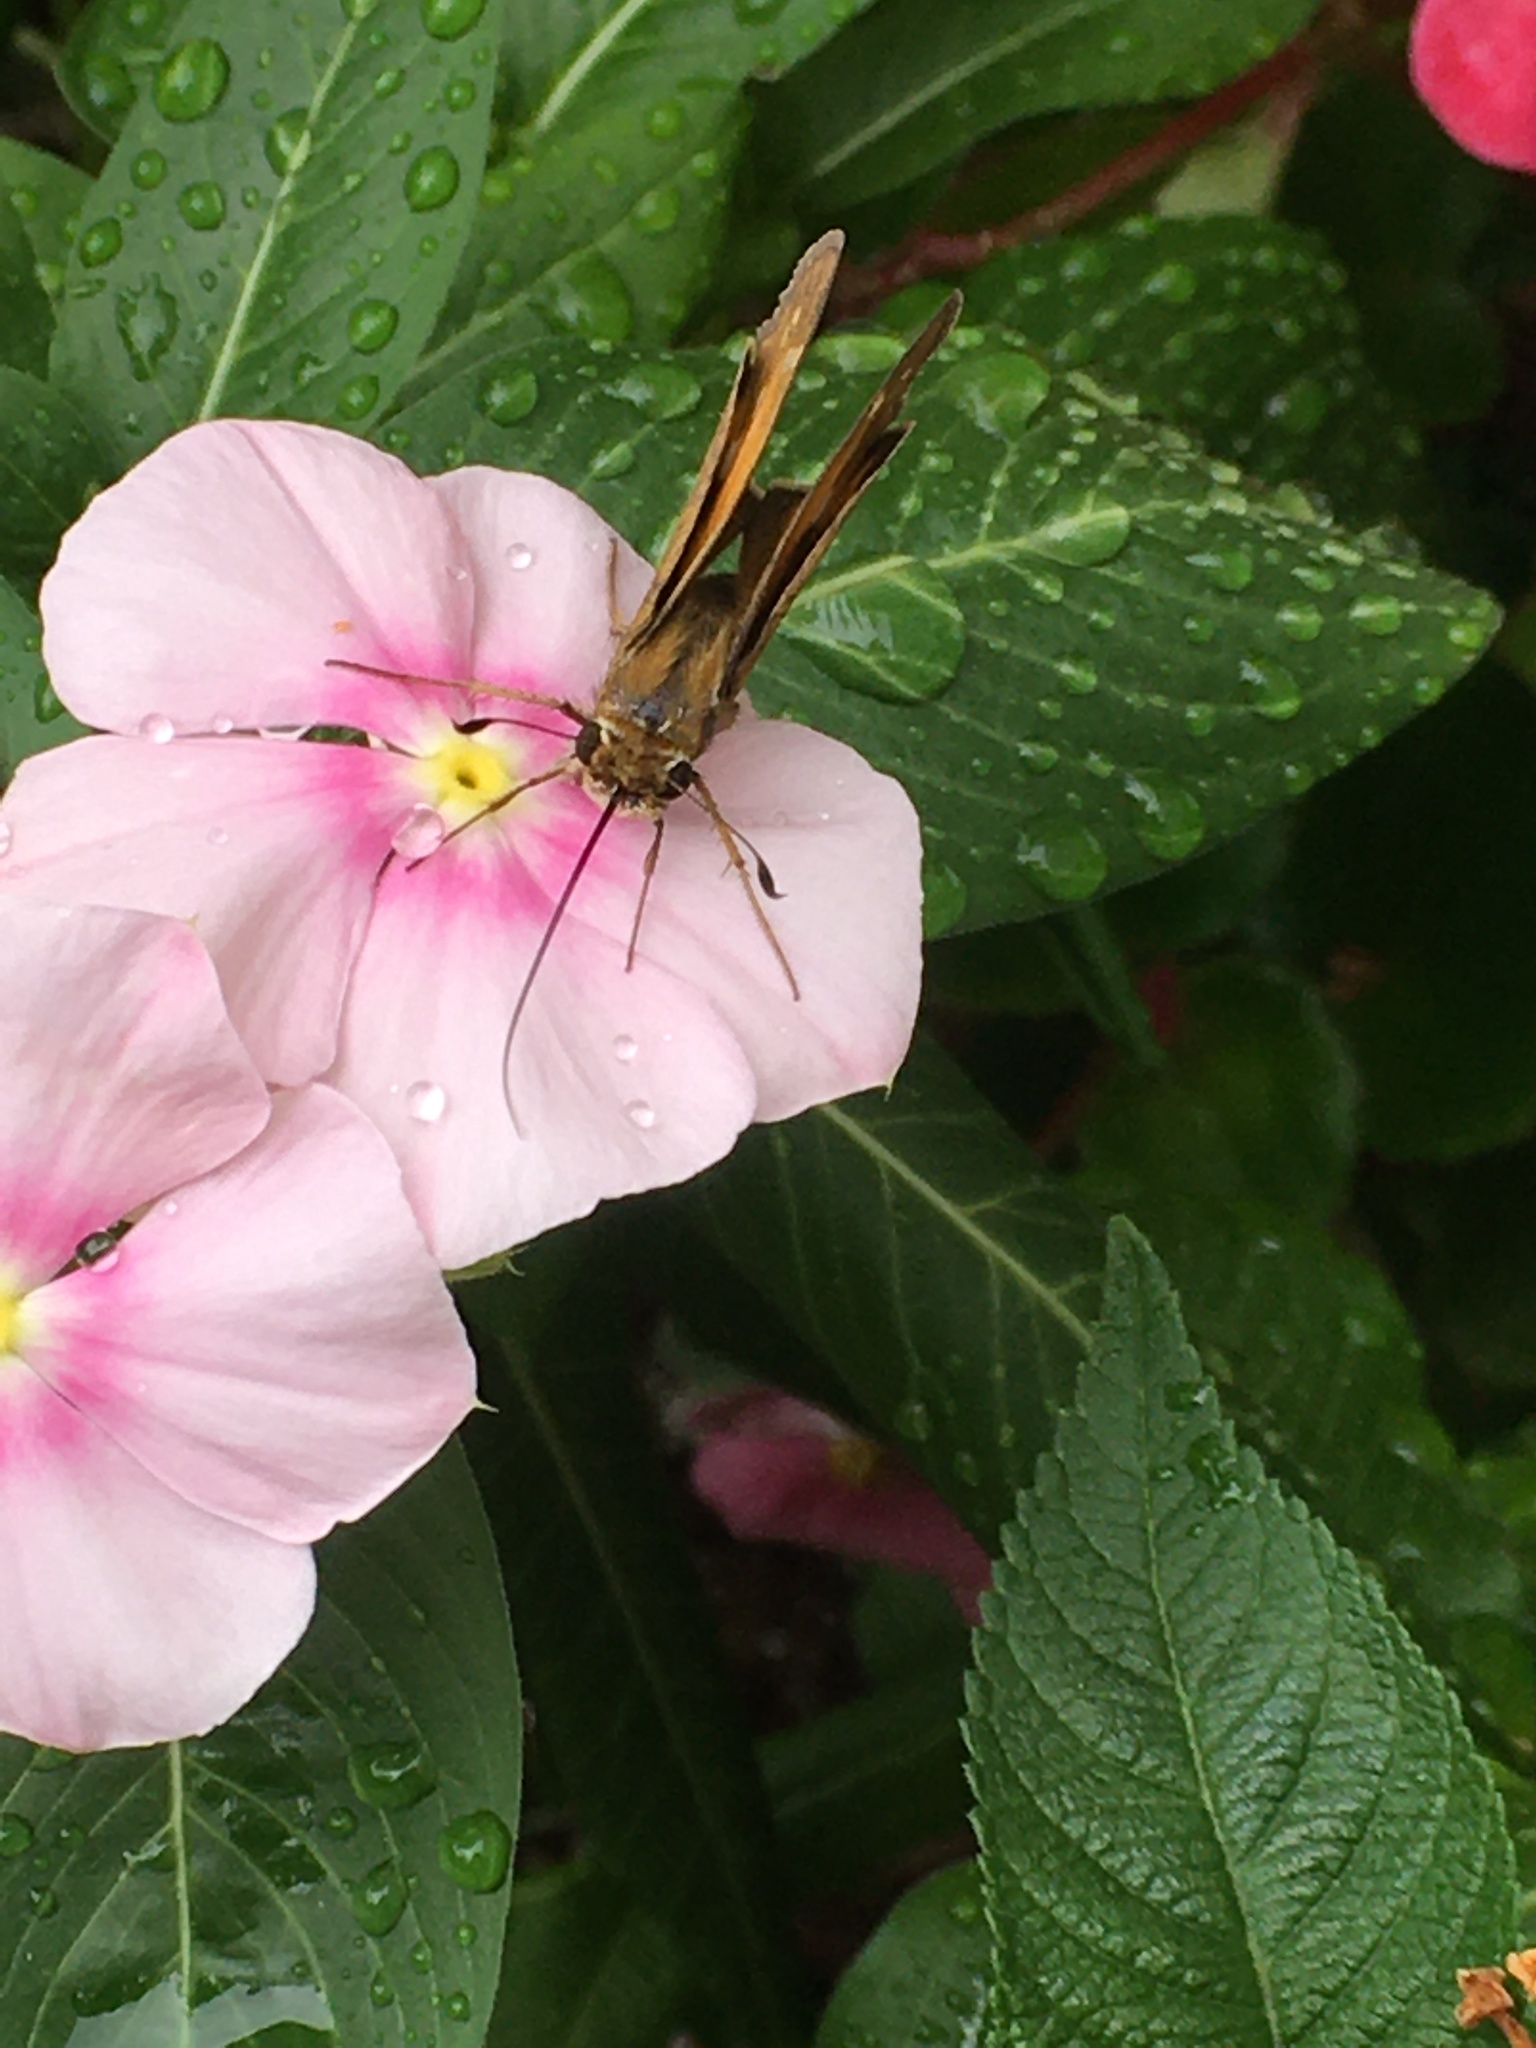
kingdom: Animalia
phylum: Arthropoda
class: Insecta
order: Lepidoptera
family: Hesperiidae
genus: Atalopedes
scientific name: Atalopedes
